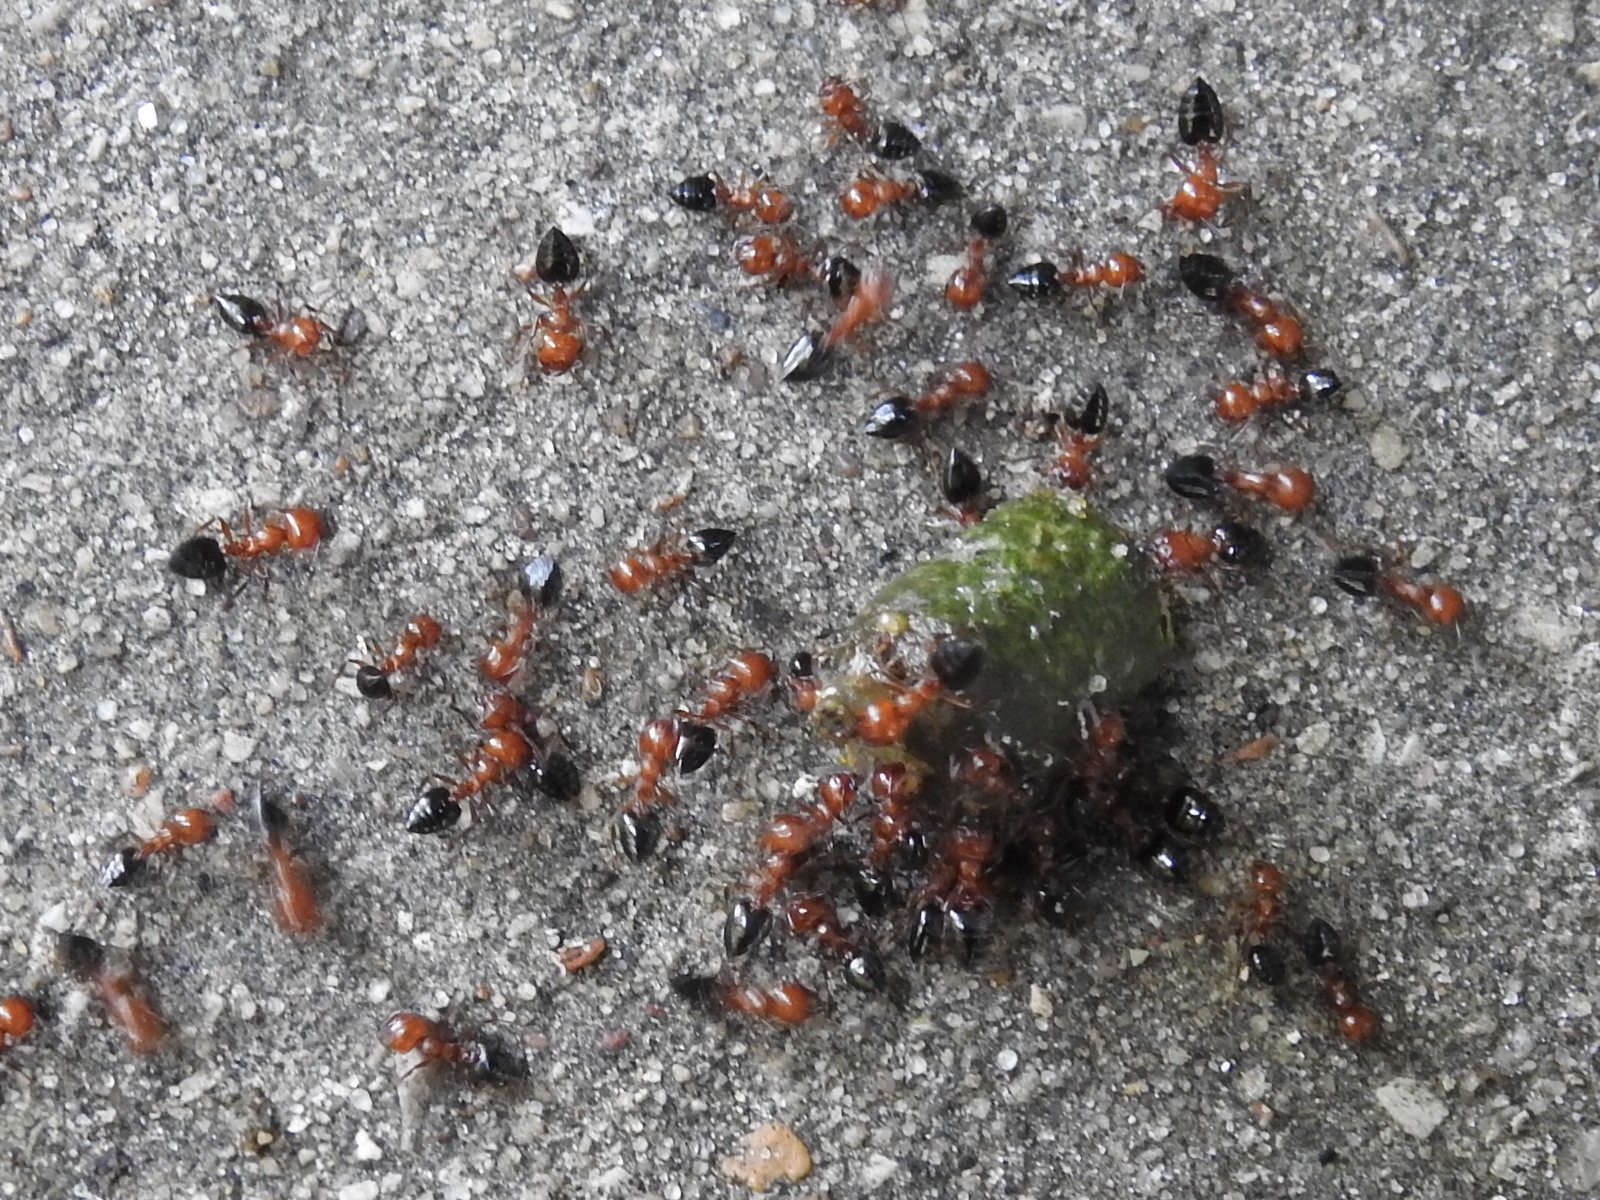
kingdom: Animalia
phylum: Arthropoda
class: Insecta
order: Hymenoptera
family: Formicidae
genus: Crematogaster
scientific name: Crematogaster laeviuscula
